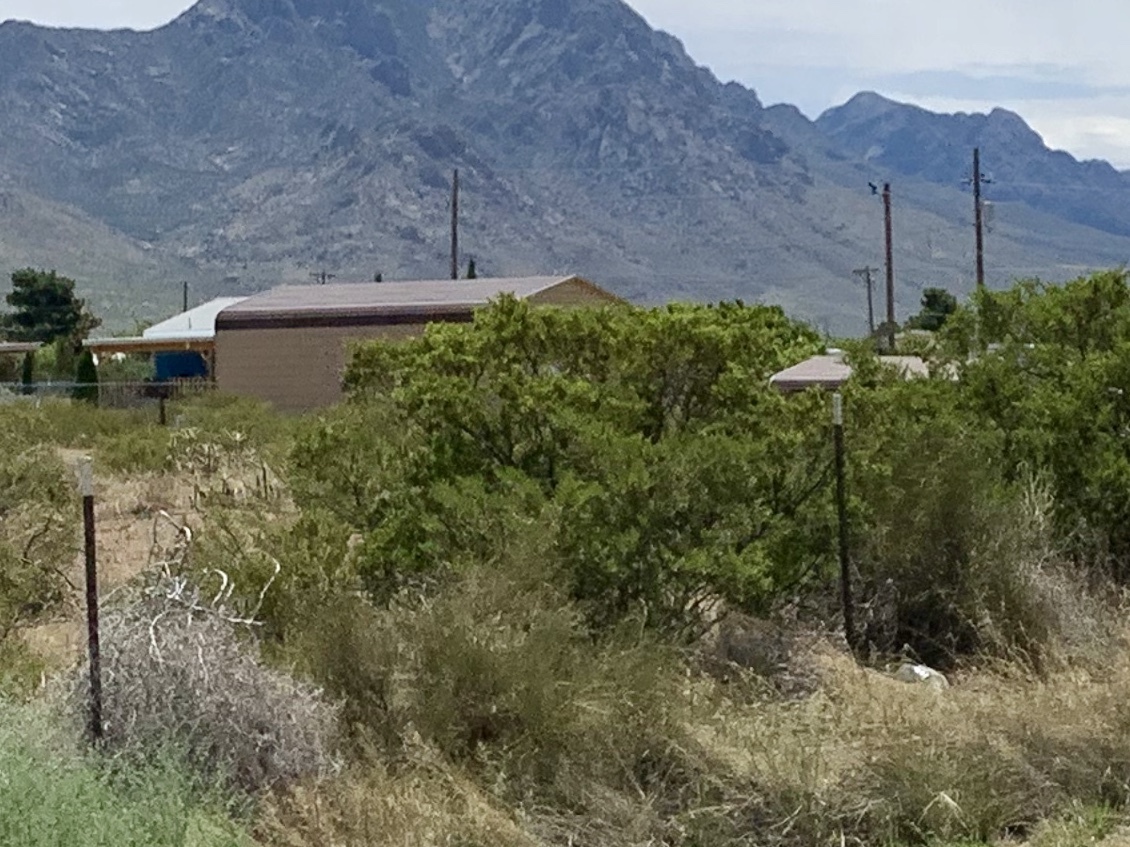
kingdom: Plantae
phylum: Tracheophyta
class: Magnoliopsida
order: Zygophyllales
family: Zygophyllaceae
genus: Larrea
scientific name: Larrea tridentata
